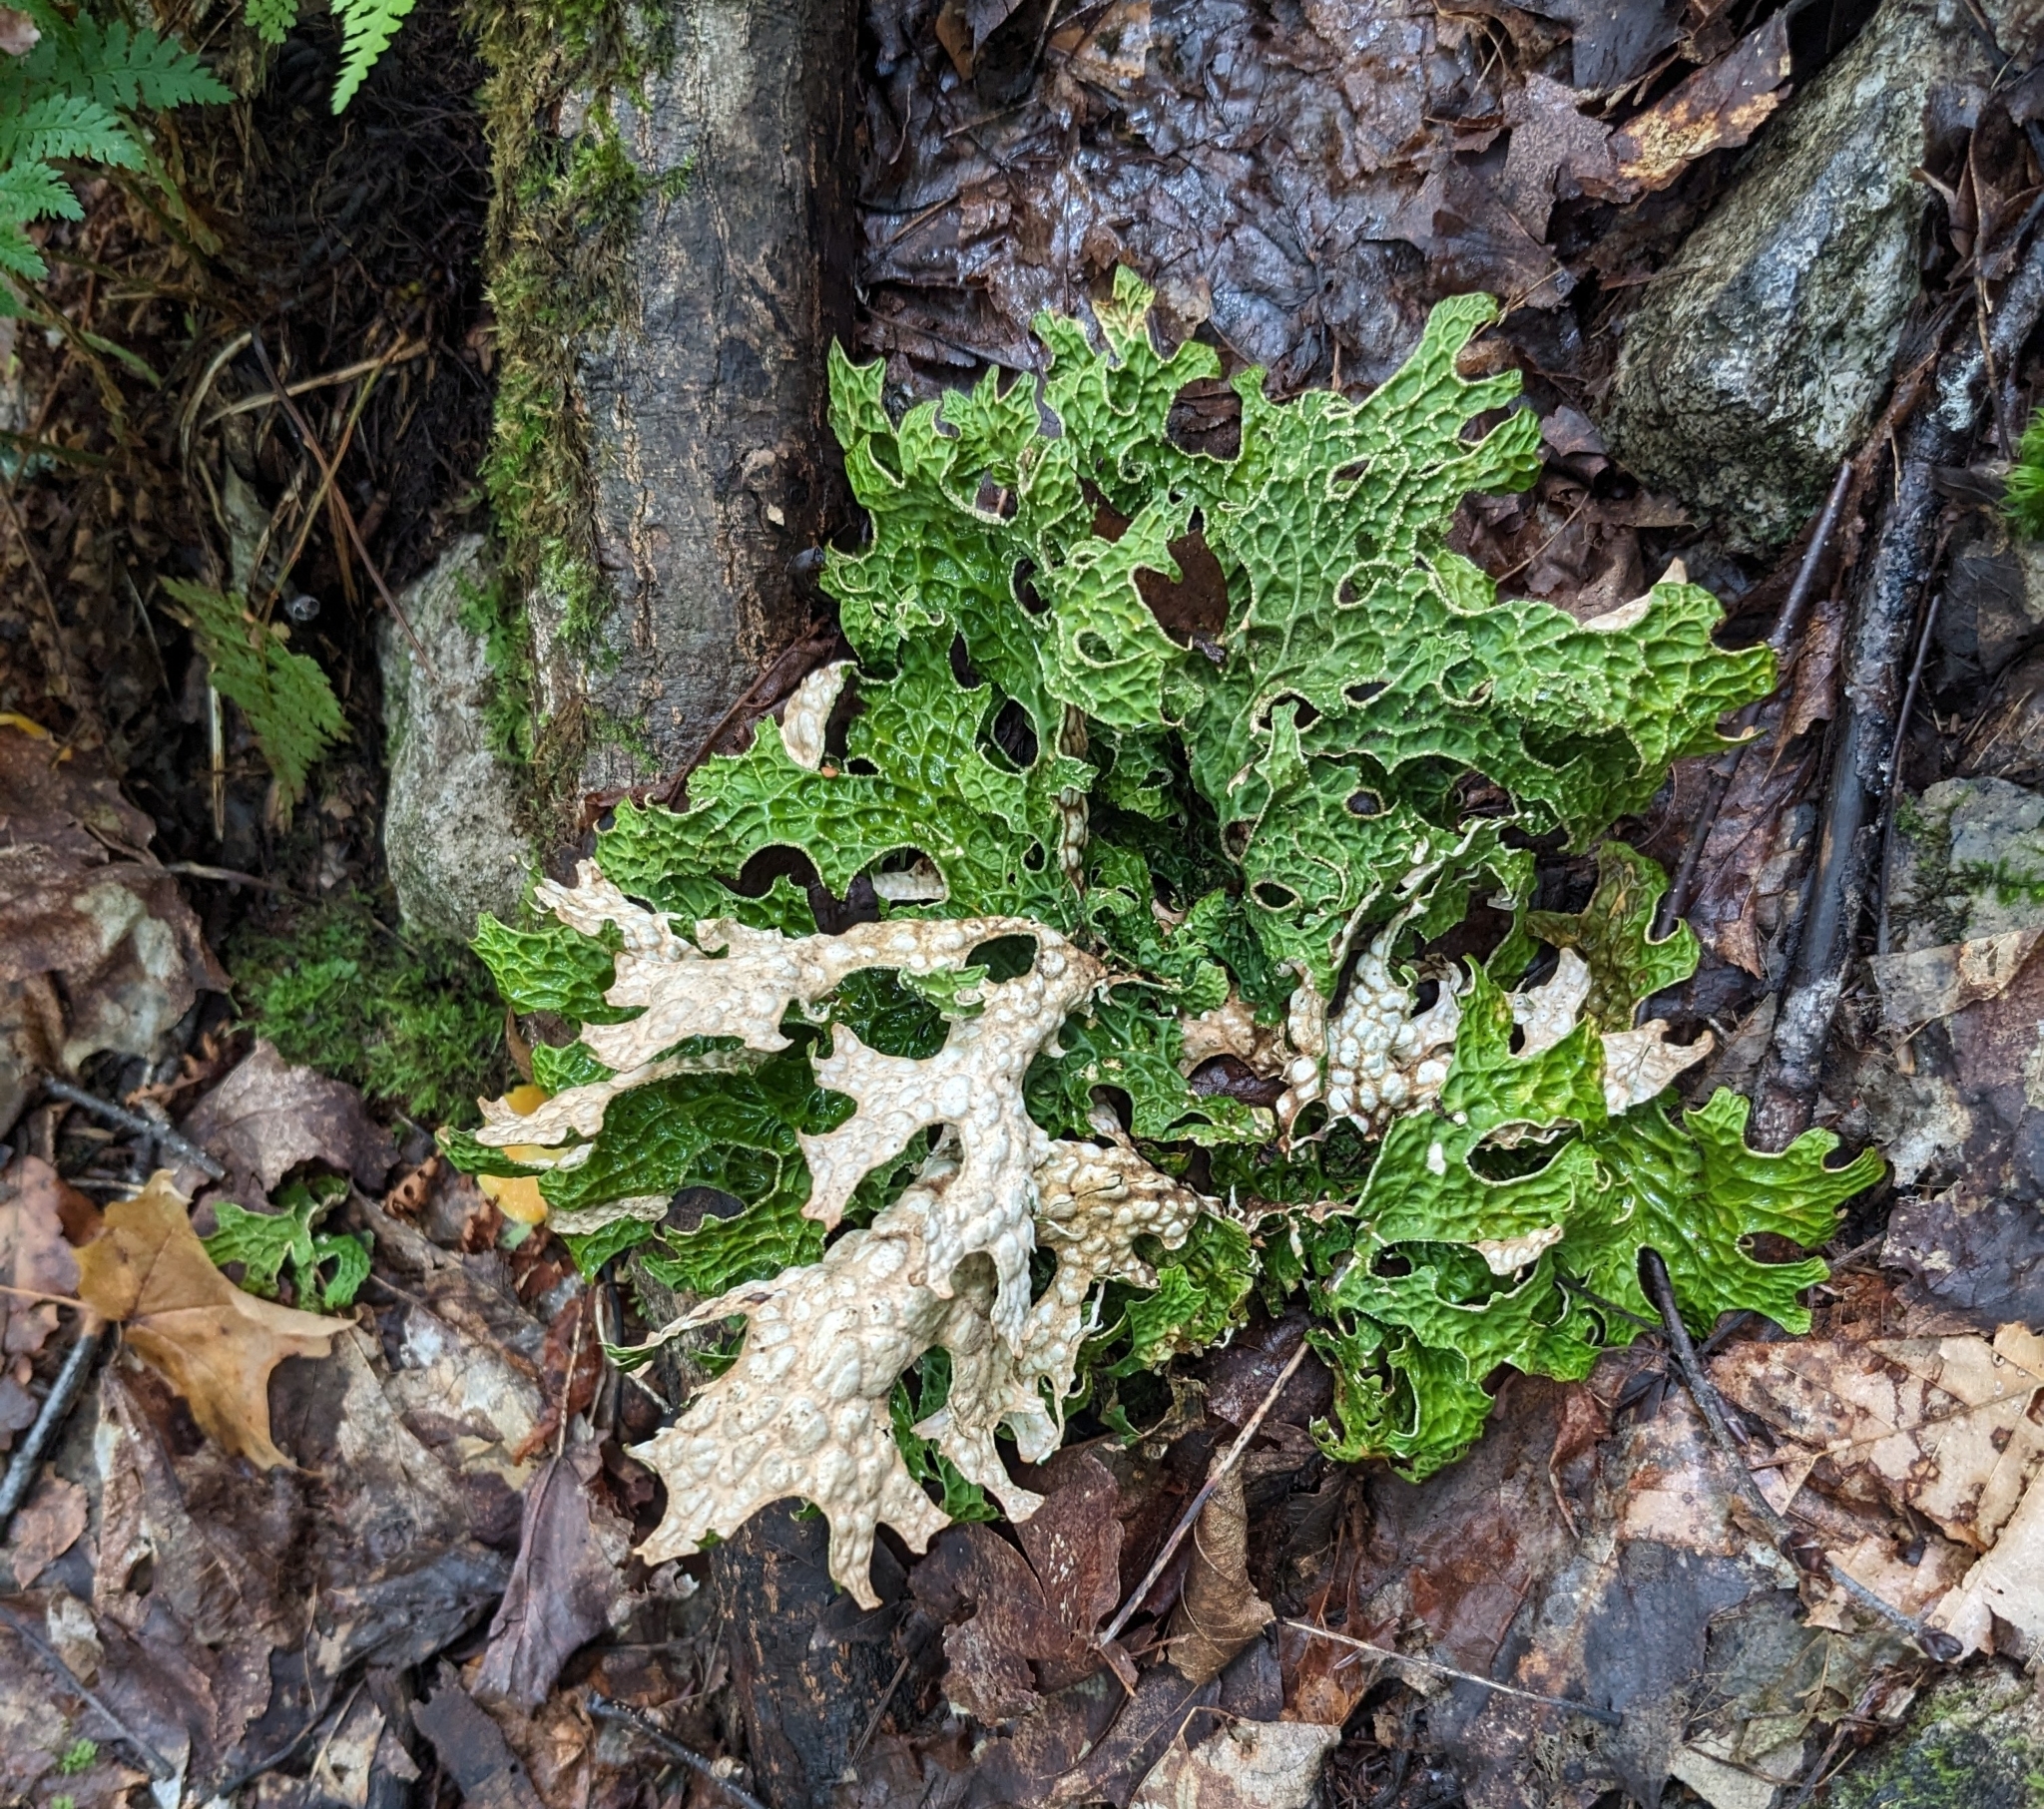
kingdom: Fungi
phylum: Ascomycota
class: Lecanoromycetes
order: Peltigerales
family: Lobariaceae
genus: Lobaria
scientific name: Lobaria pulmonaria
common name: Lungwort
